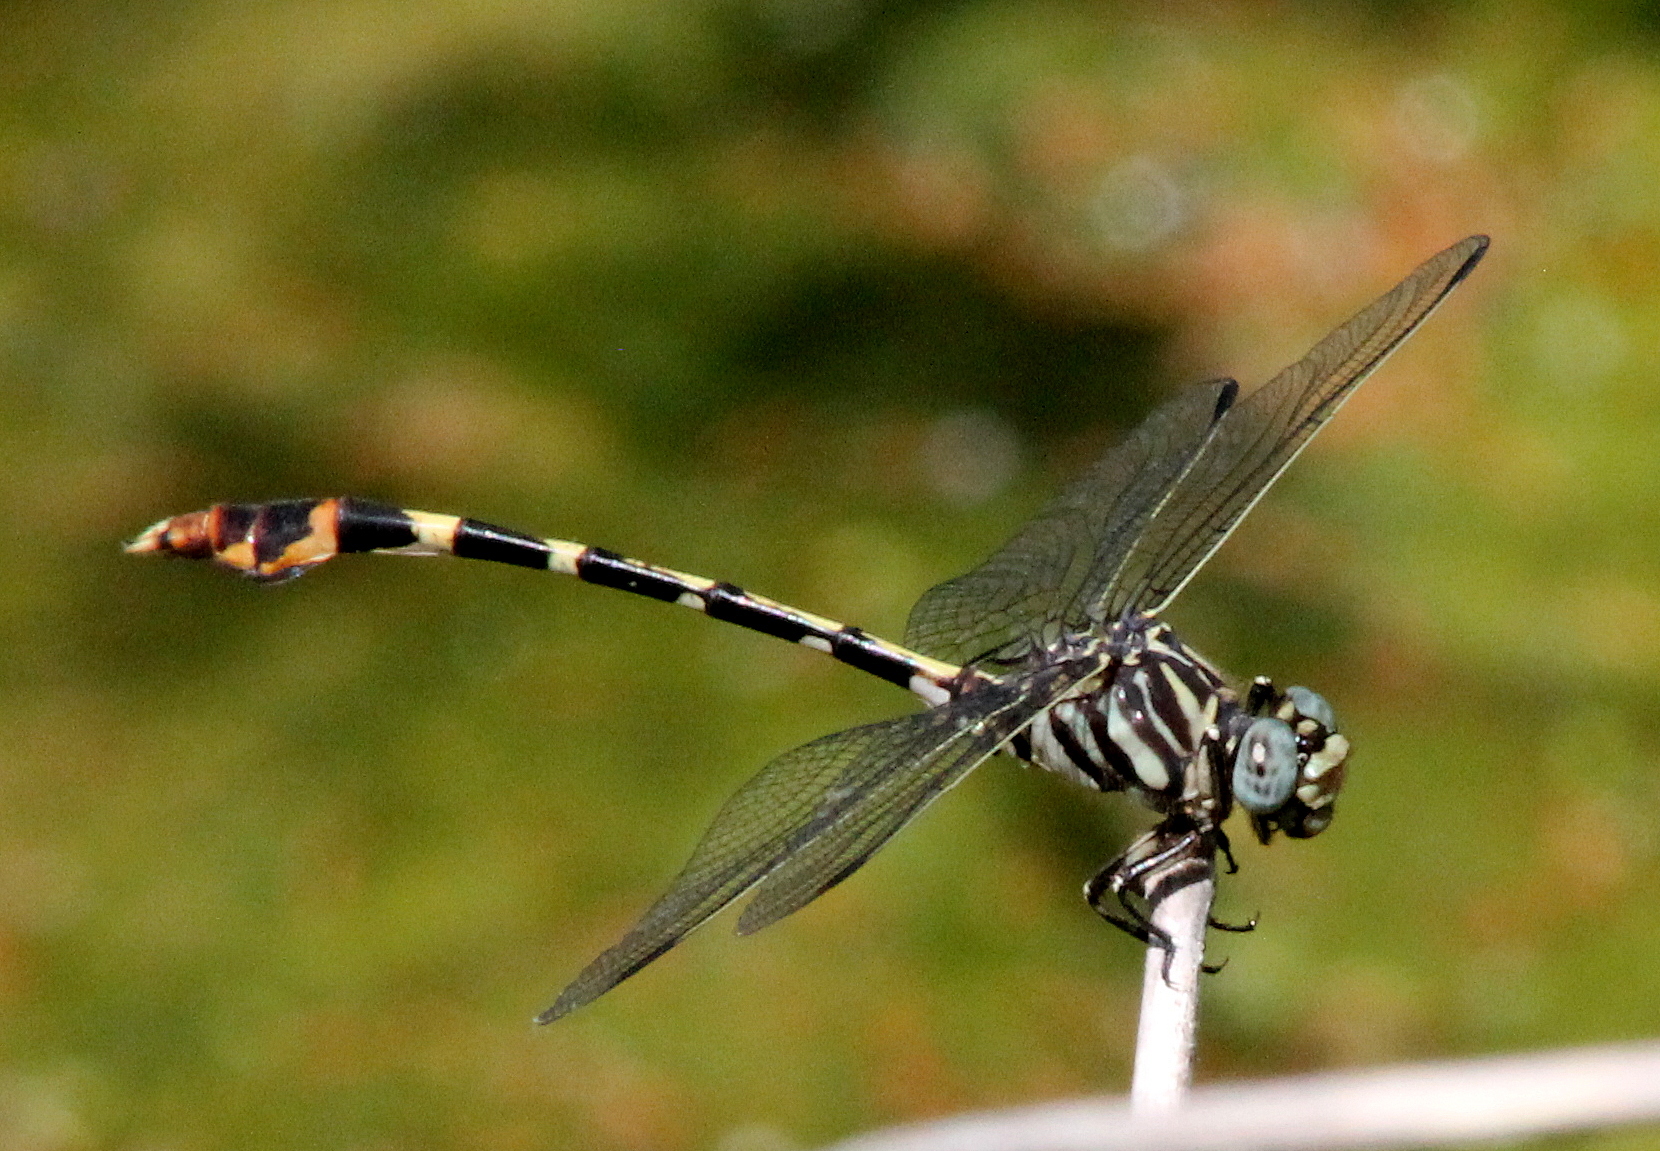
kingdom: Animalia
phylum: Arthropoda
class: Insecta
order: Odonata
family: Gomphidae
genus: Phyllogomphoides
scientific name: Phyllogomphoides stigmatus
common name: Four-striped leaftail
